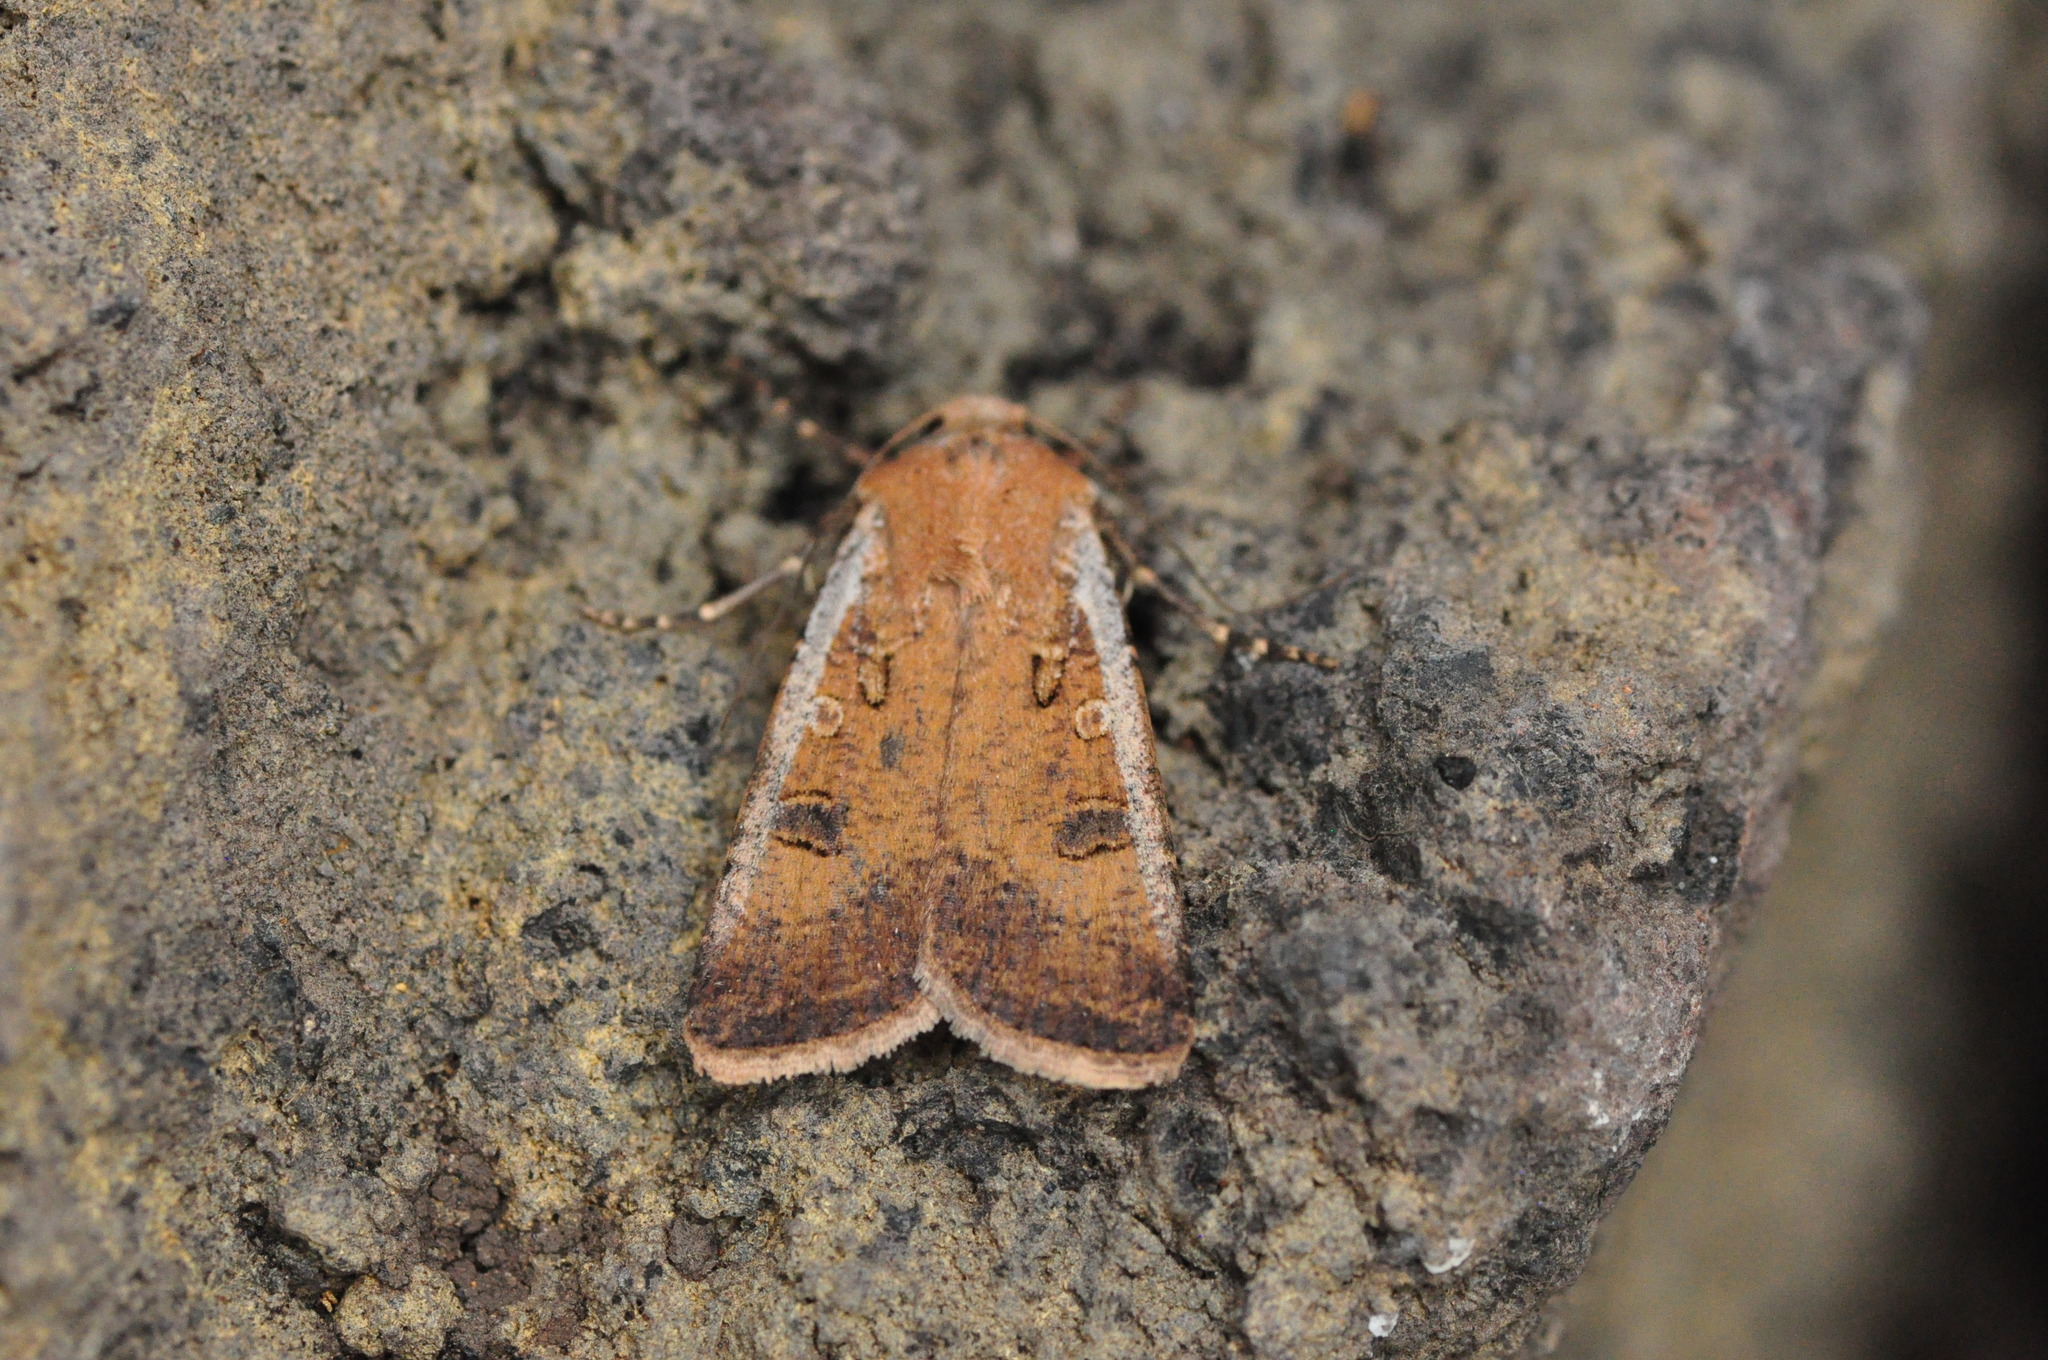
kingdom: Animalia
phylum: Arthropoda
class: Insecta
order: Lepidoptera
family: Noctuidae
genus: Agrotis
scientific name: Agrotis trux
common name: Crescent dart
